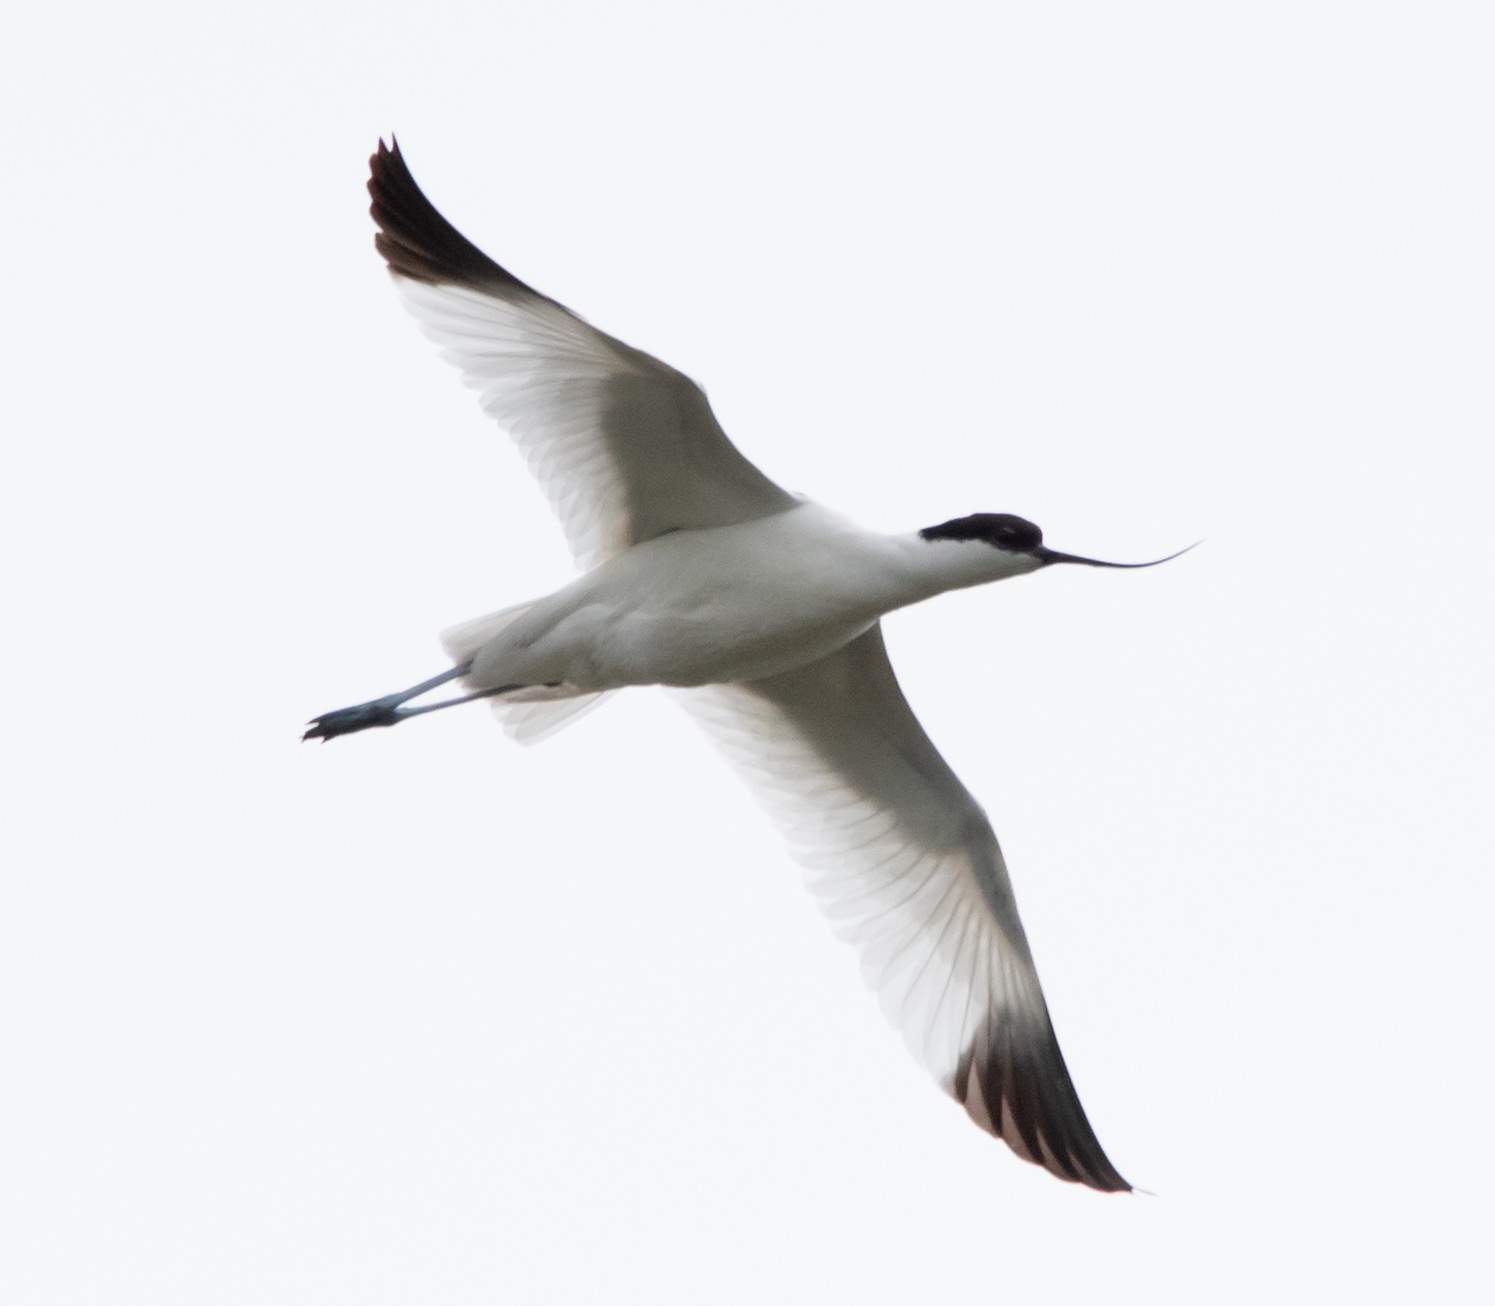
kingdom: Animalia
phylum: Chordata
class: Aves
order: Charadriiformes
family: Recurvirostridae
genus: Recurvirostra
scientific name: Recurvirostra avosetta
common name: Pied avocet
